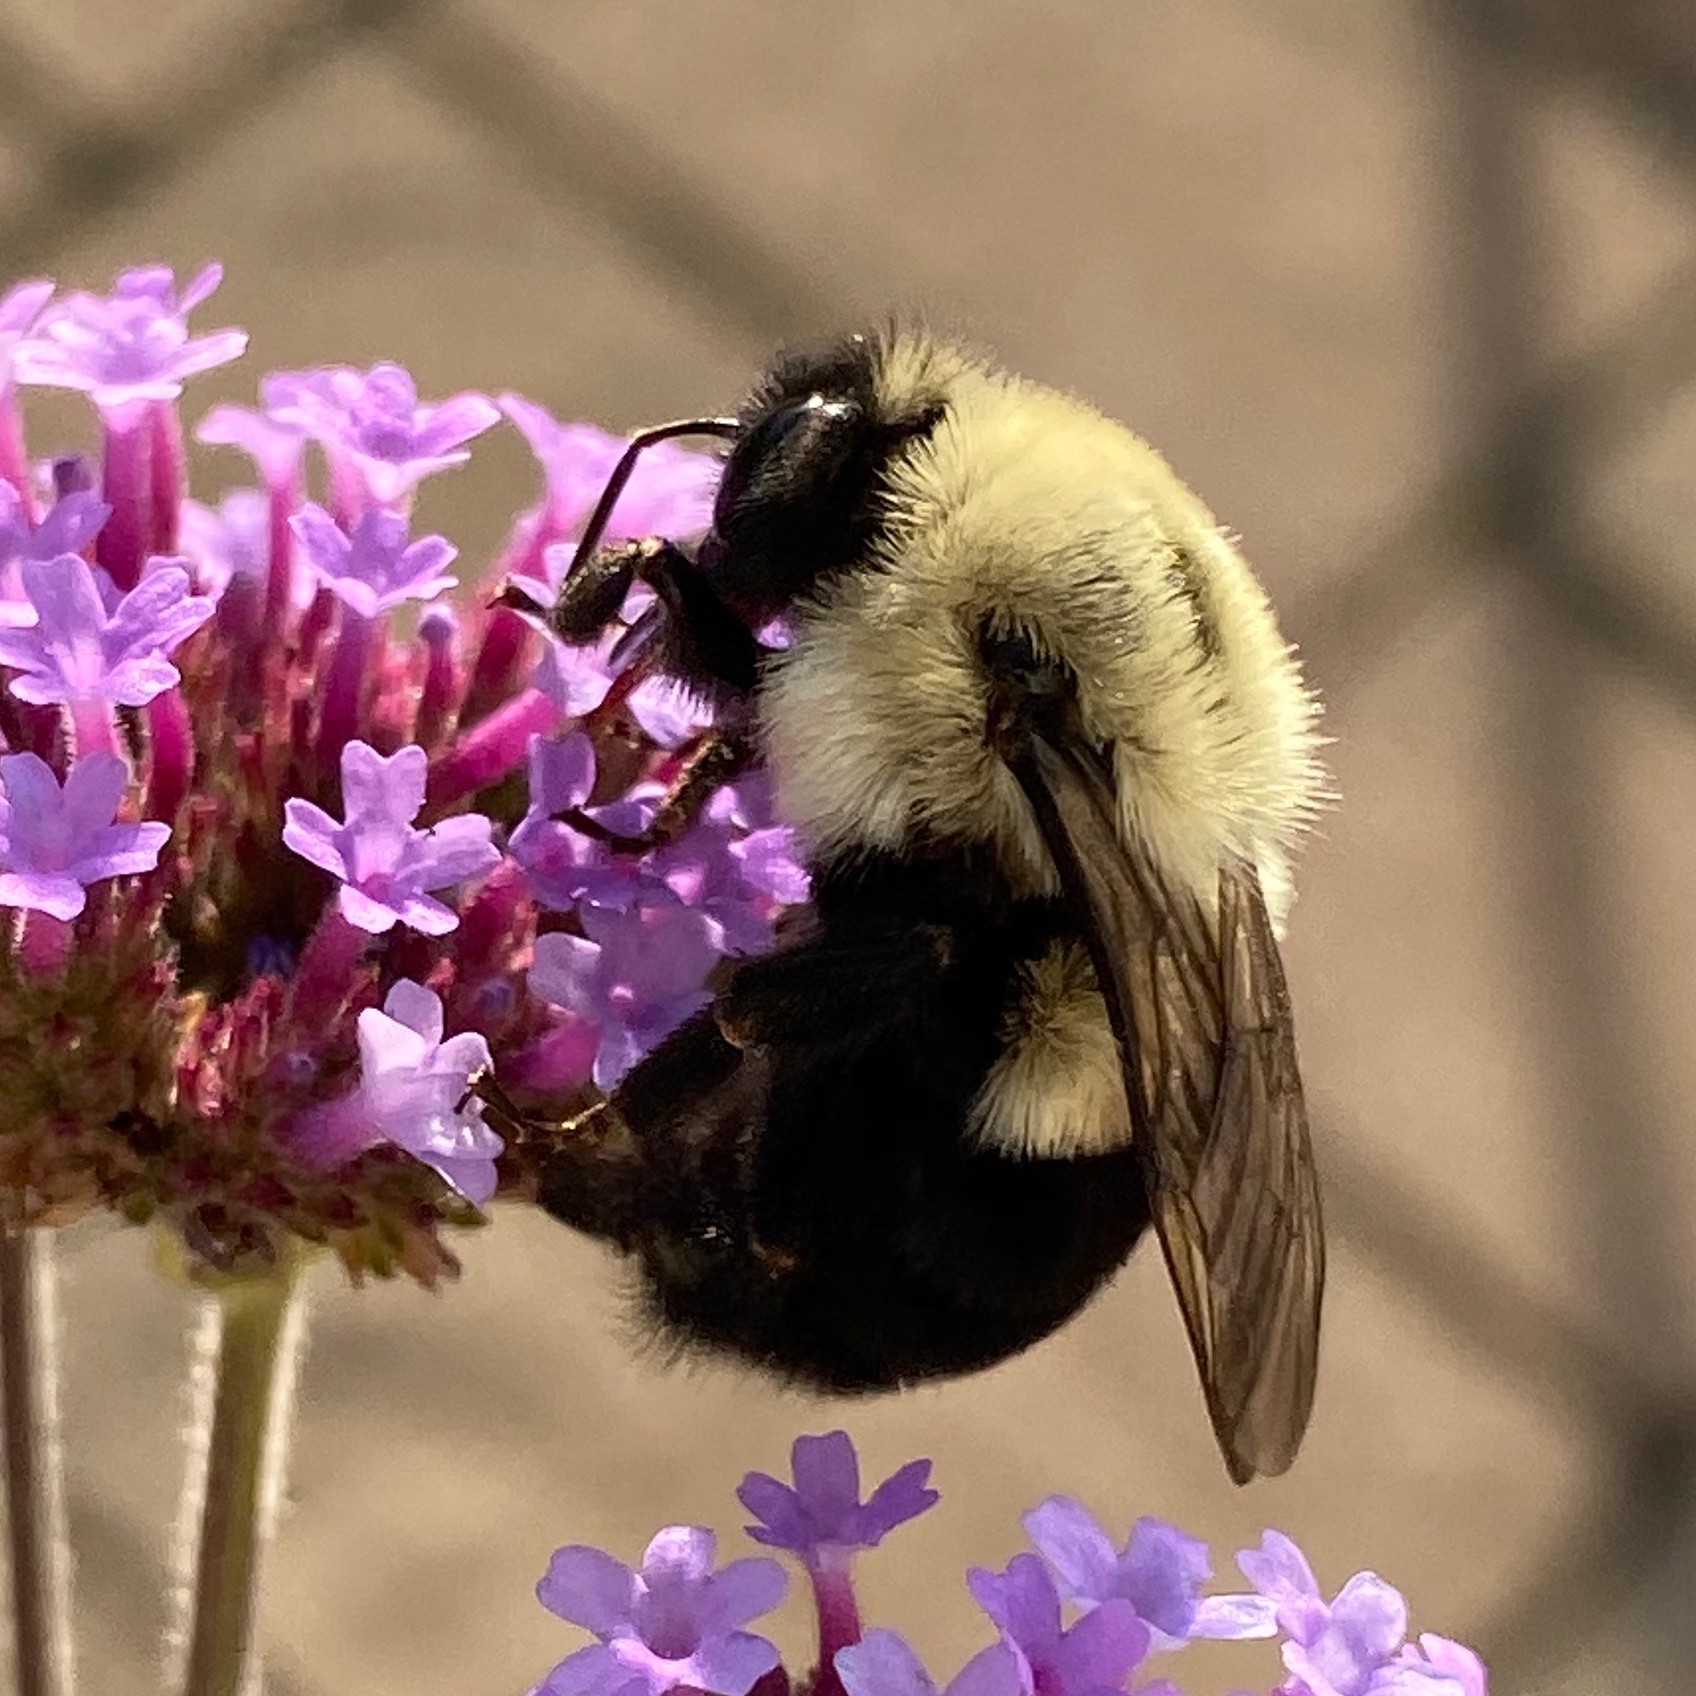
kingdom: Animalia
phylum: Arthropoda
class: Insecta
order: Hymenoptera
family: Apidae
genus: Bombus
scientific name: Bombus impatiens
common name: Common eastern bumble bee
